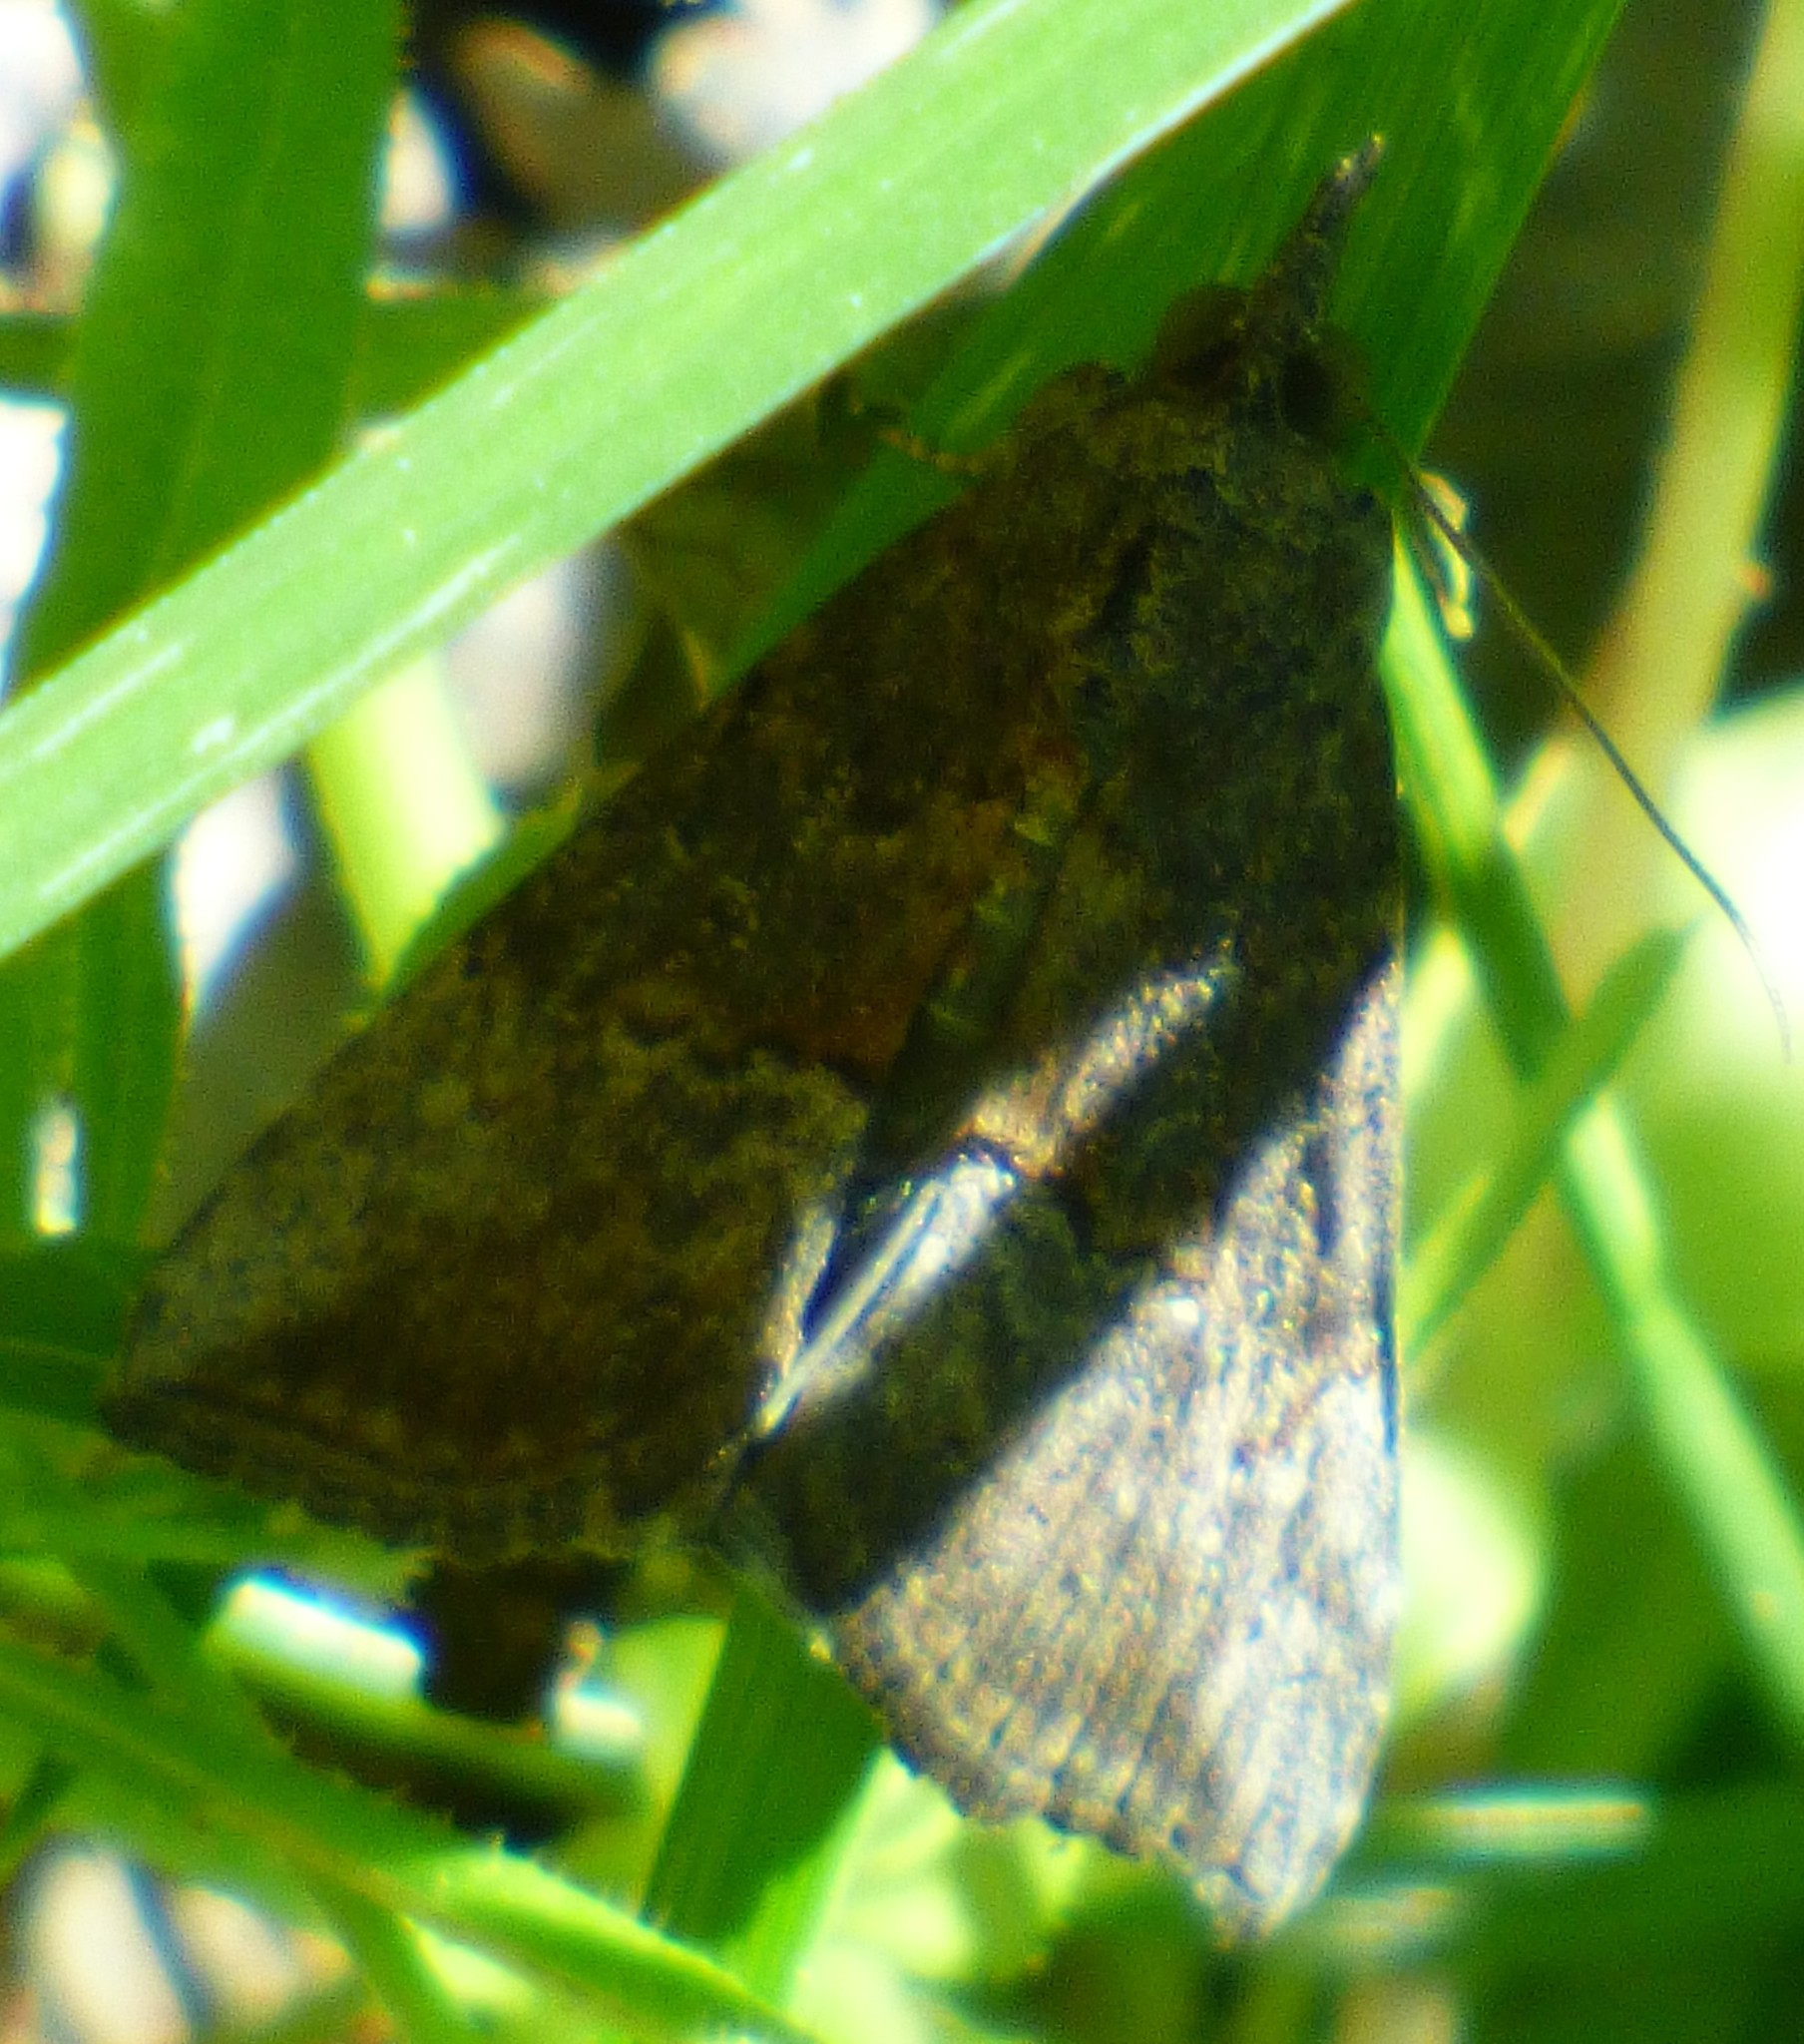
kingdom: Animalia
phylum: Arthropoda
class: Insecta
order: Lepidoptera
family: Erebidae
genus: Hypena
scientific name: Hypena scabra
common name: Green cloverworm
